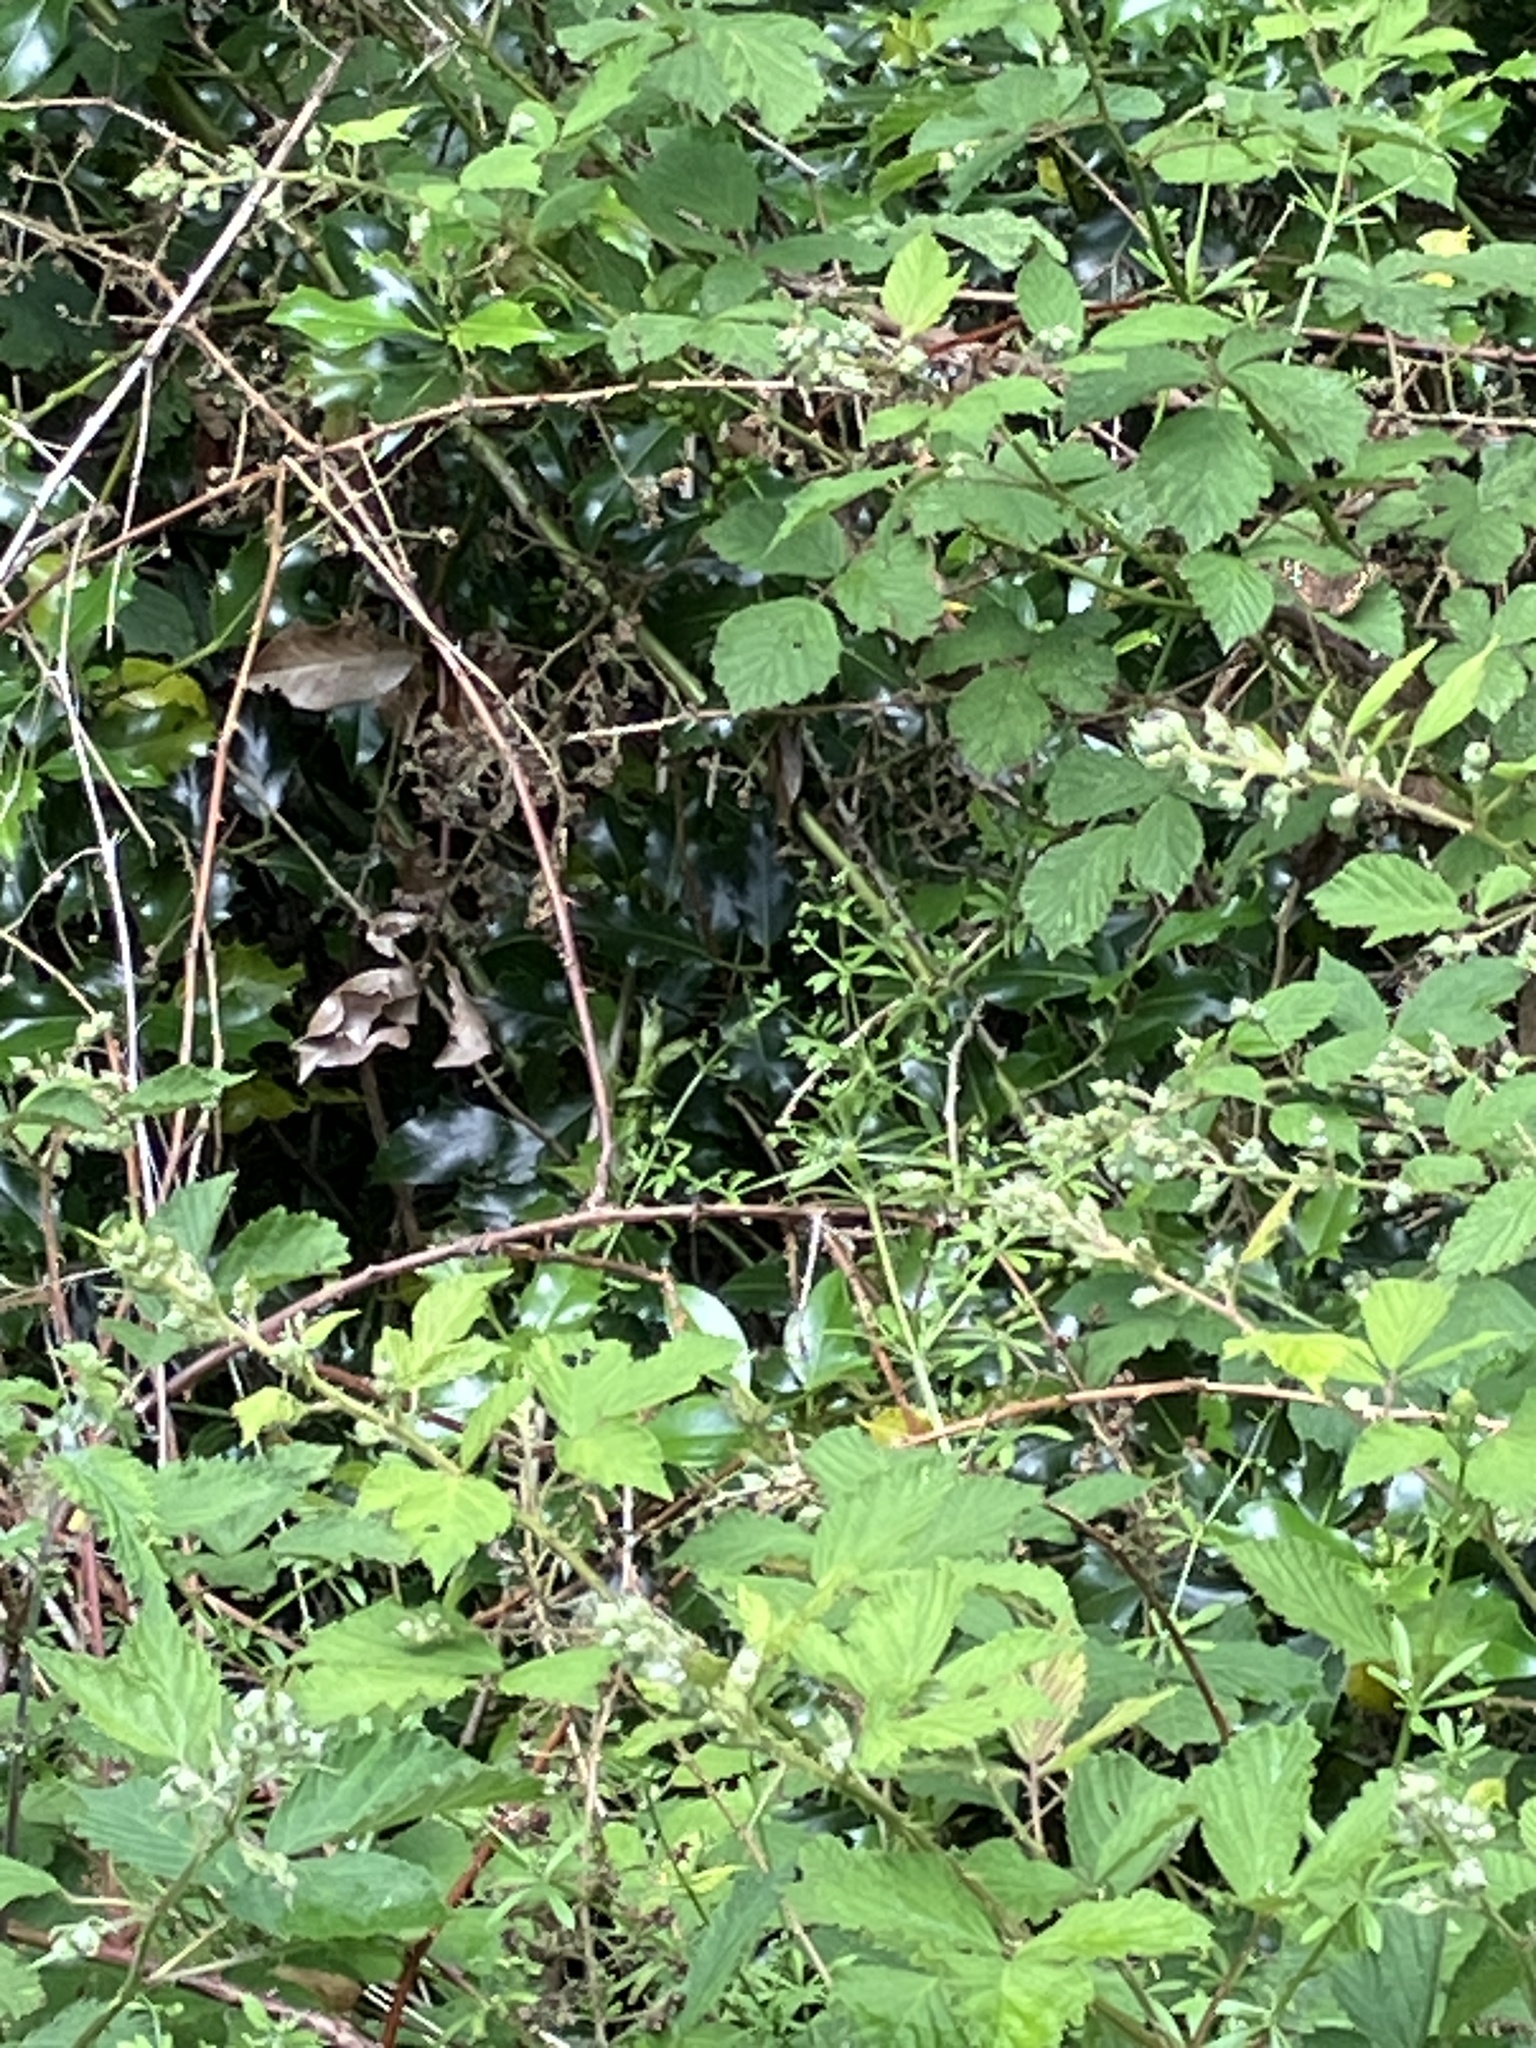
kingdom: Animalia
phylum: Arthropoda
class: Insecta
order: Lepidoptera
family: Nymphalidae
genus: Pararge
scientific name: Pararge aegeria
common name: Speckled wood
